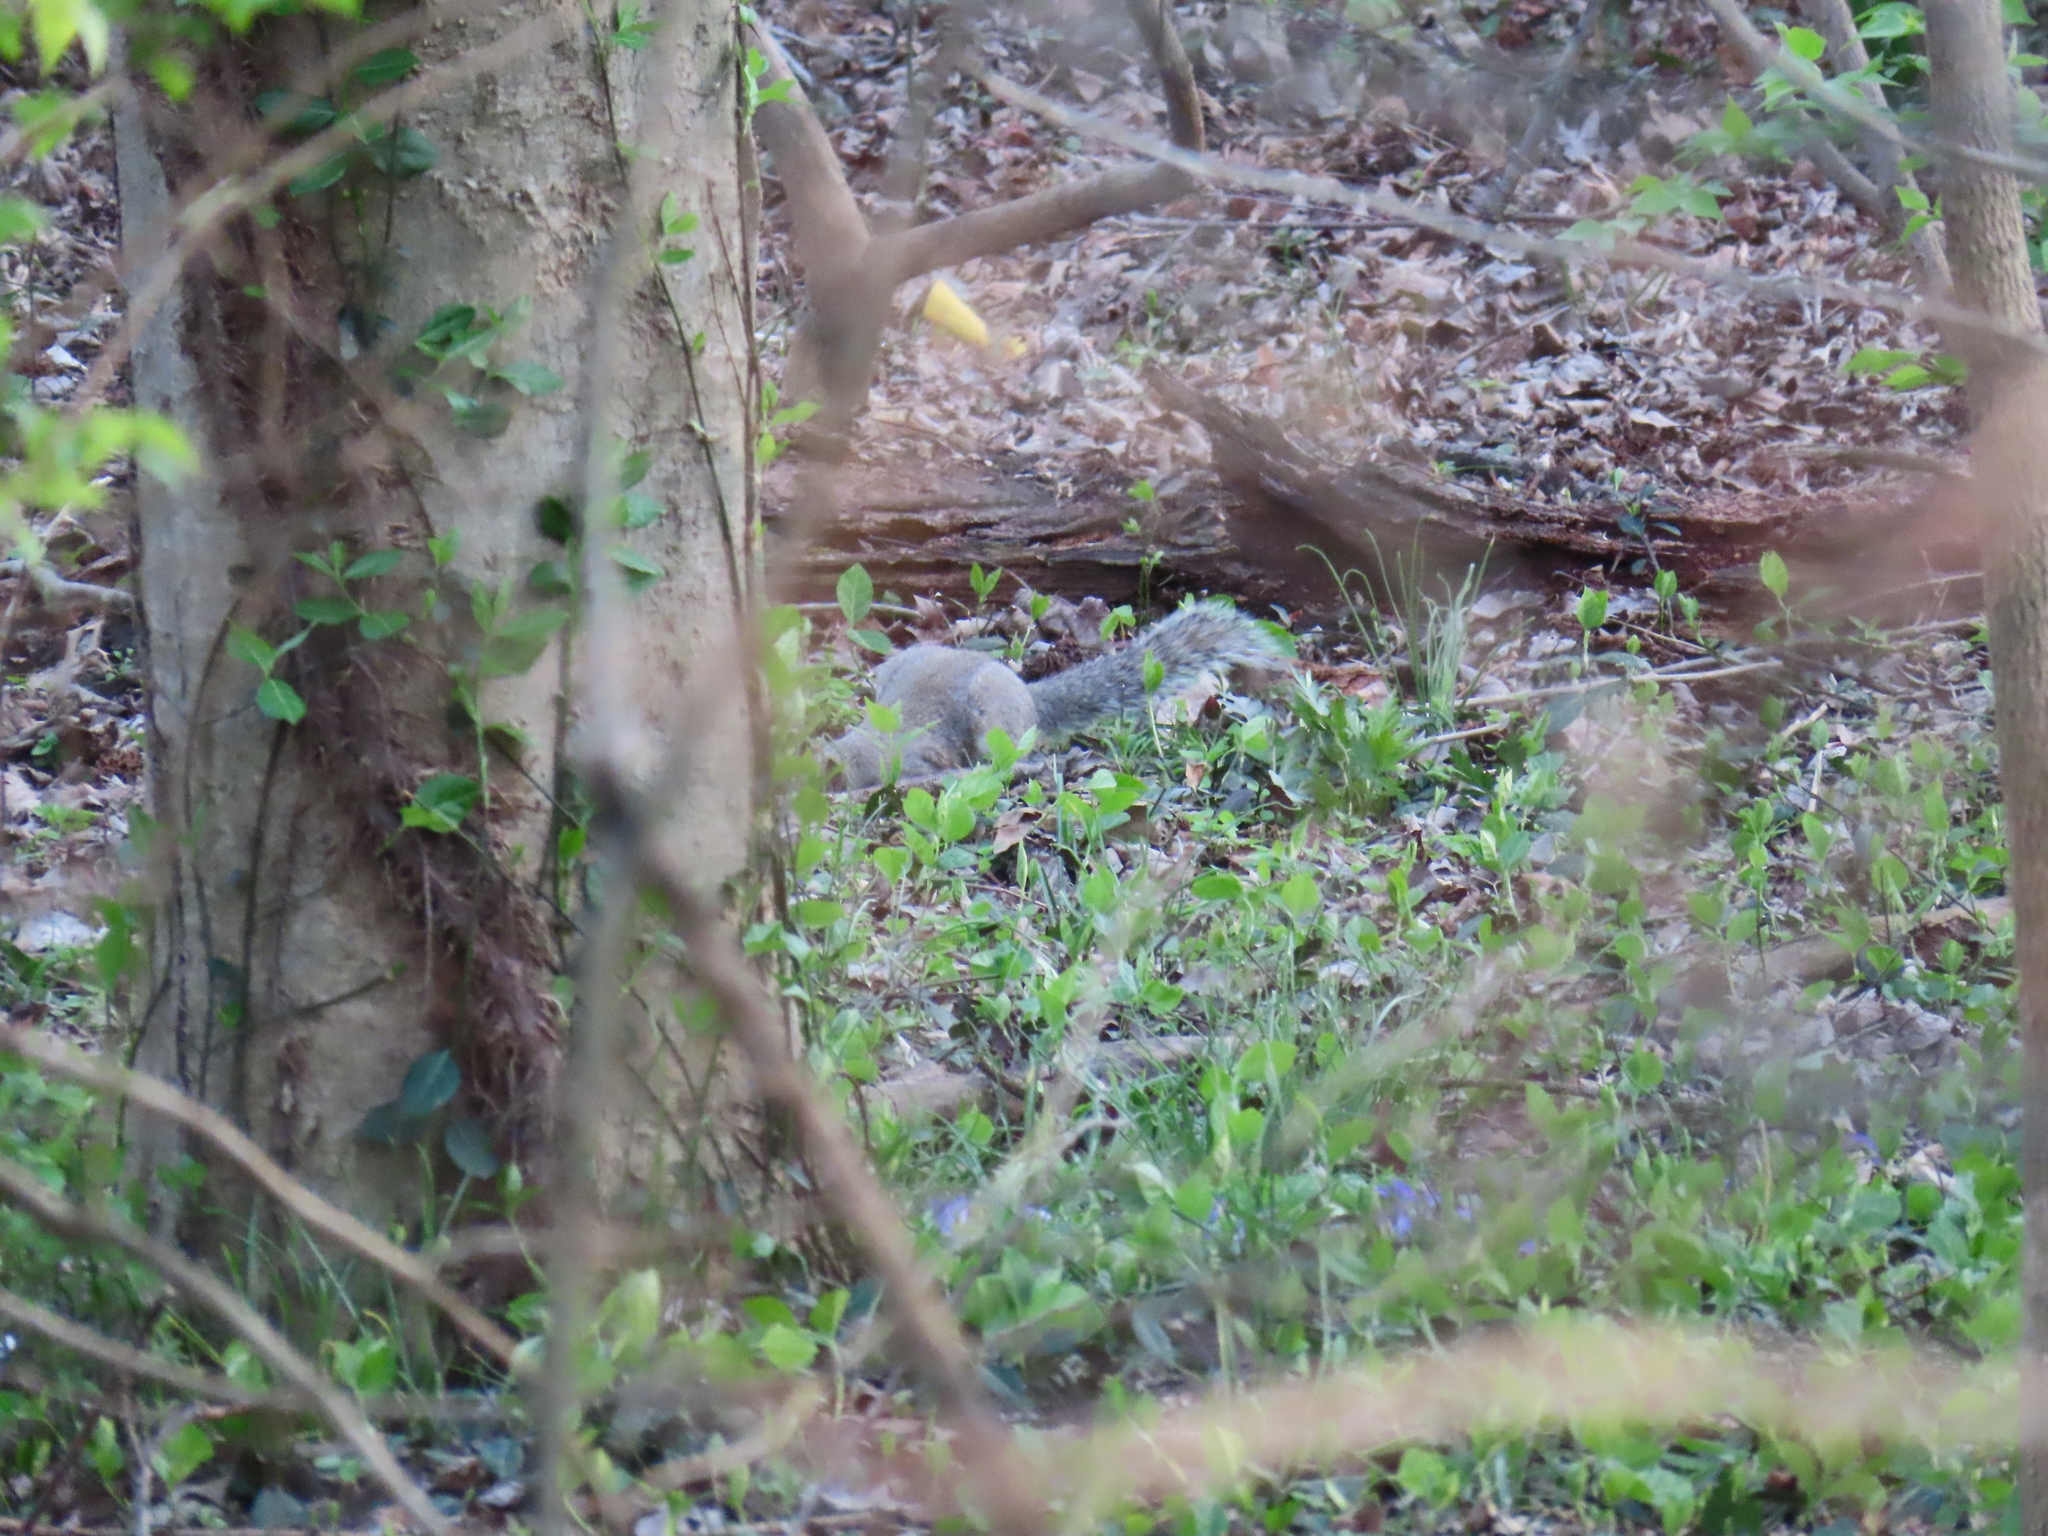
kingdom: Animalia
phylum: Chordata
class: Mammalia
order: Rodentia
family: Sciuridae
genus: Sciurus
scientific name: Sciurus carolinensis
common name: Eastern gray squirrel
